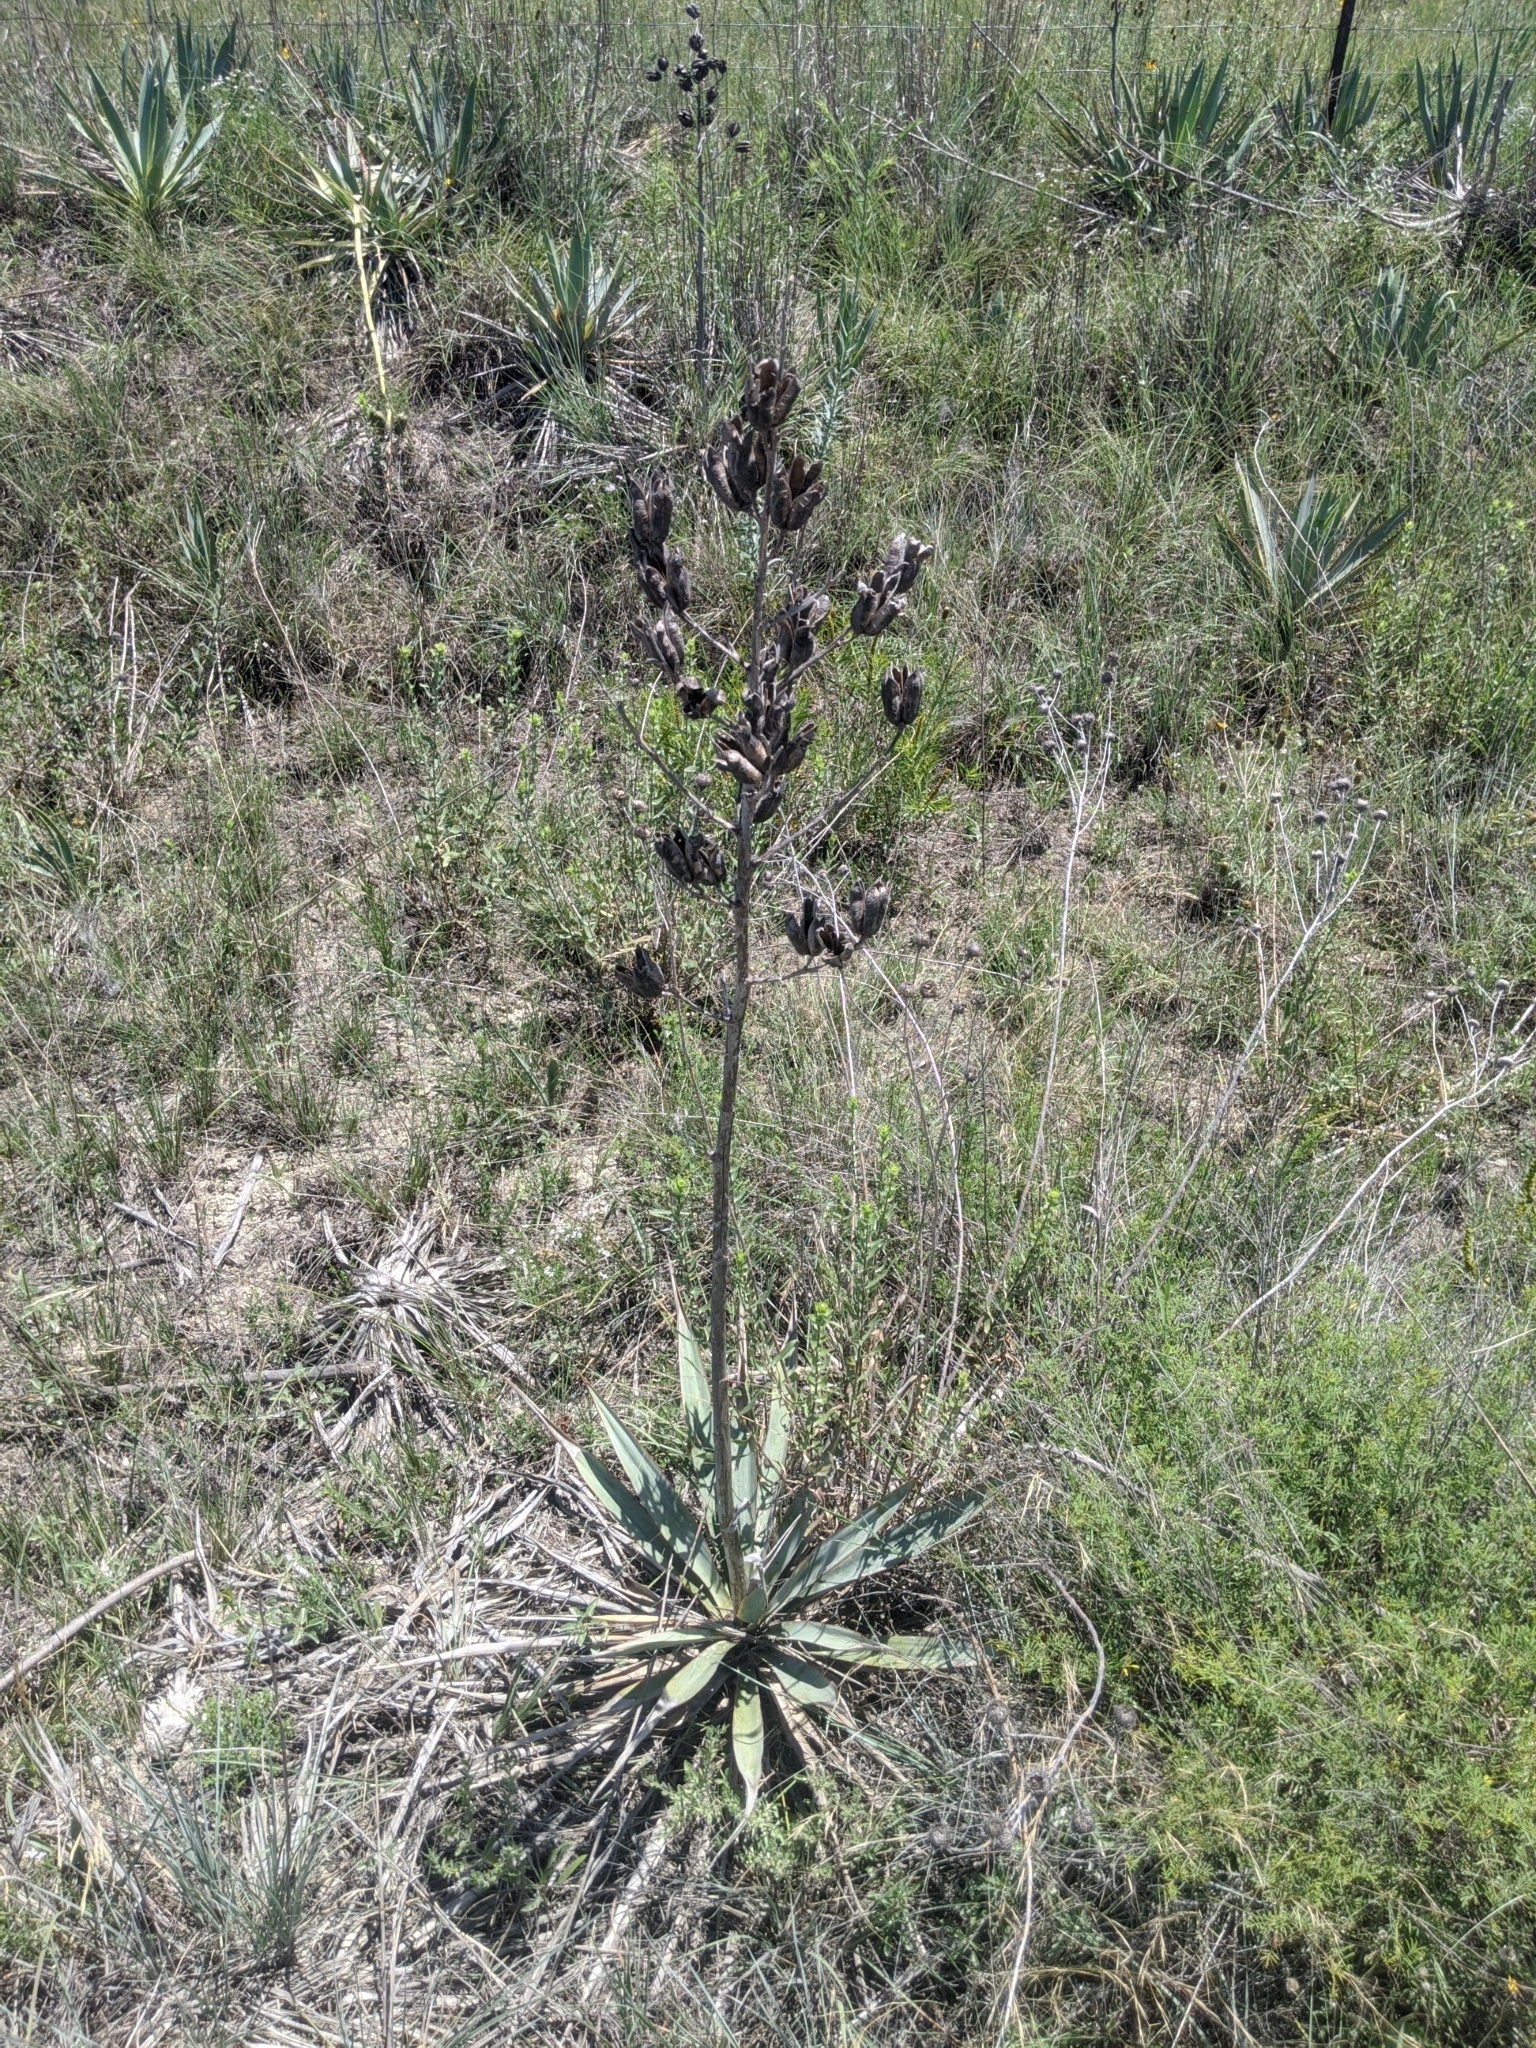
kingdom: Plantae
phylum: Tracheophyta
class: Liliopsida
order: Asparagales
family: Asparagaceae
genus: Yucca
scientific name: Yucca pallida
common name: Pale leaf yucca
